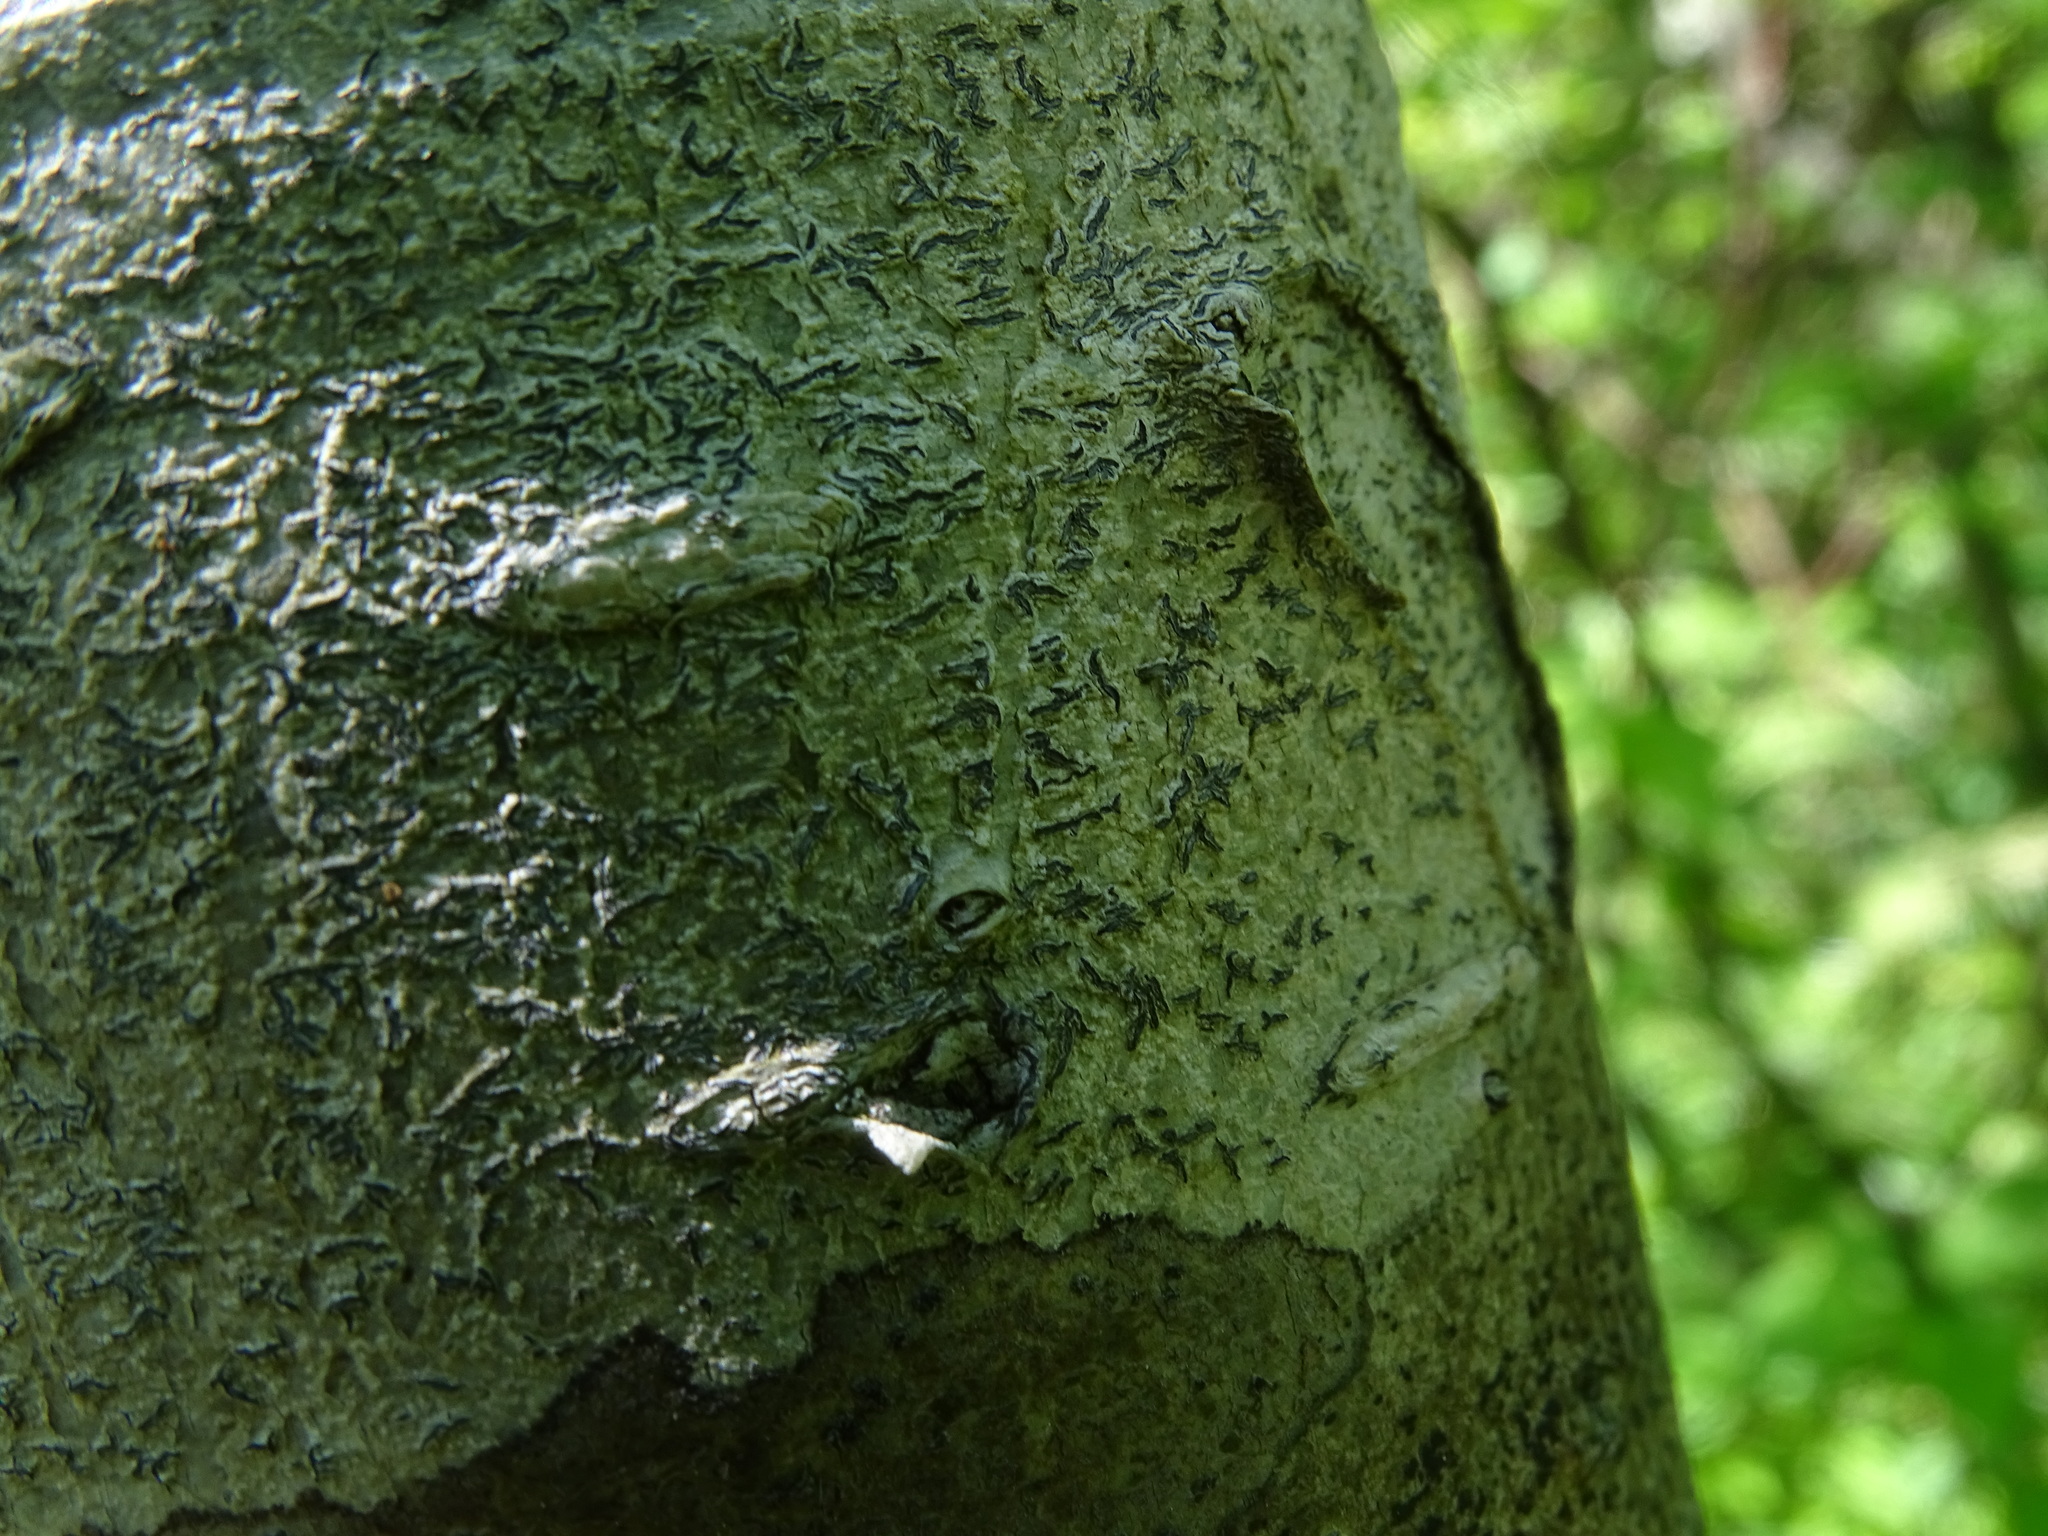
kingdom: Fungi
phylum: Ascomycota
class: Lecanoromycetes
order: Ostropales
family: Graphidaceae
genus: Graphis
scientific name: Graphis scripta
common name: Script lichen
